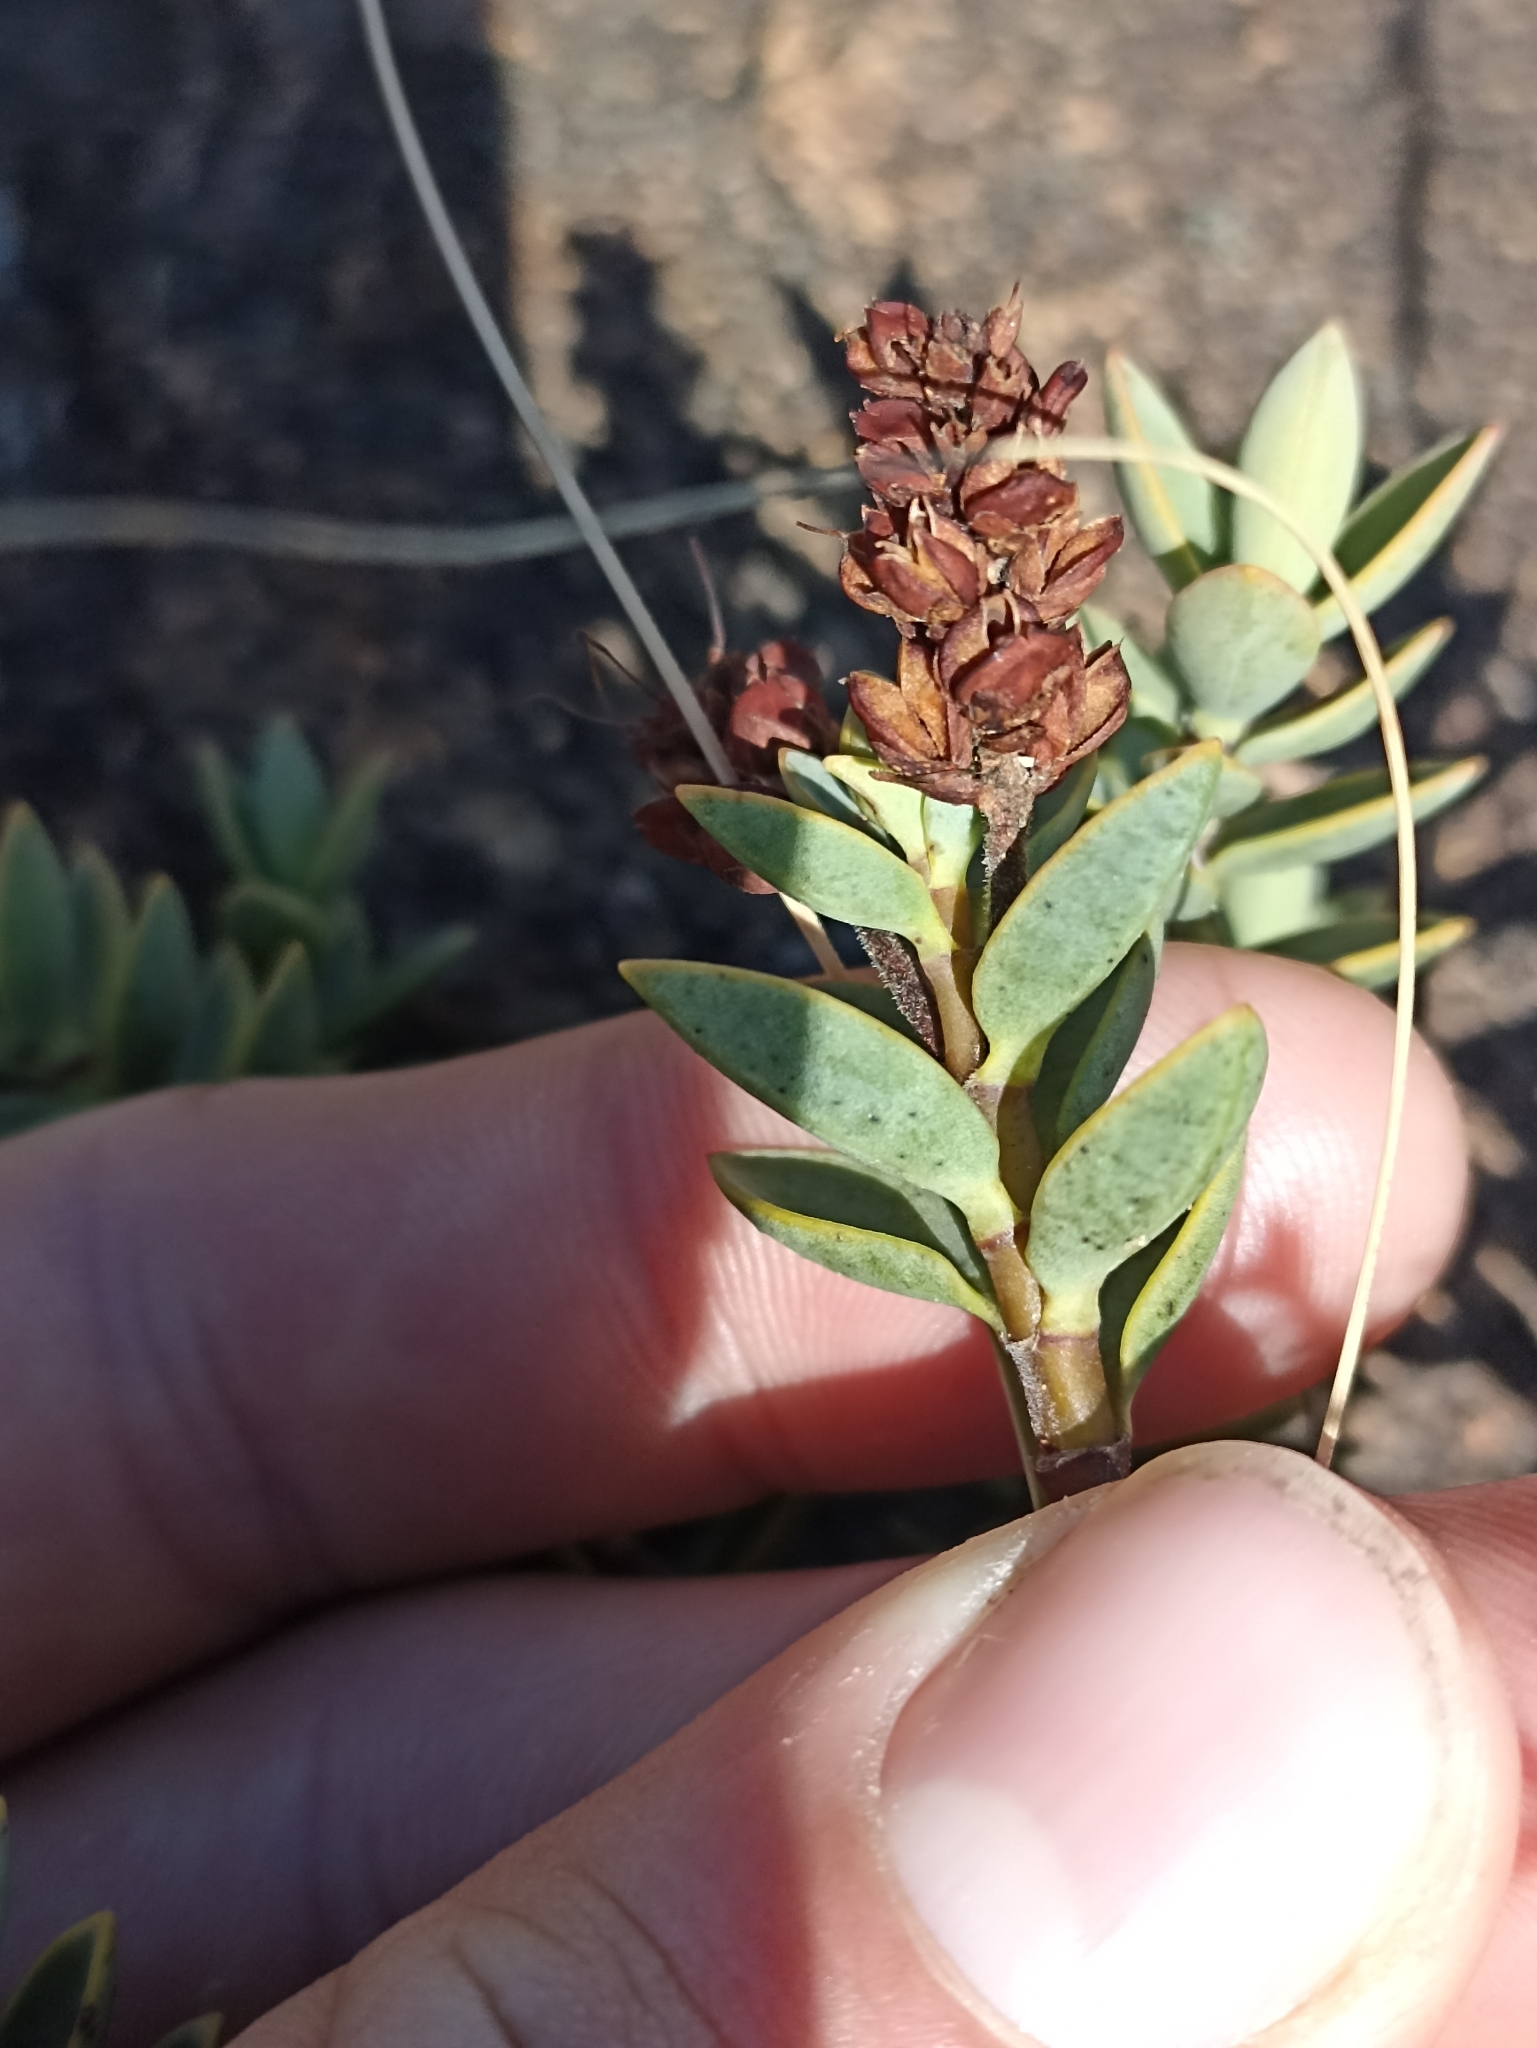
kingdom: Plantae
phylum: Tracheophyta
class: Magnoliopsida
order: Lamiales
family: Plantaginaceae
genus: Veronica
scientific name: Veronica baylyi
